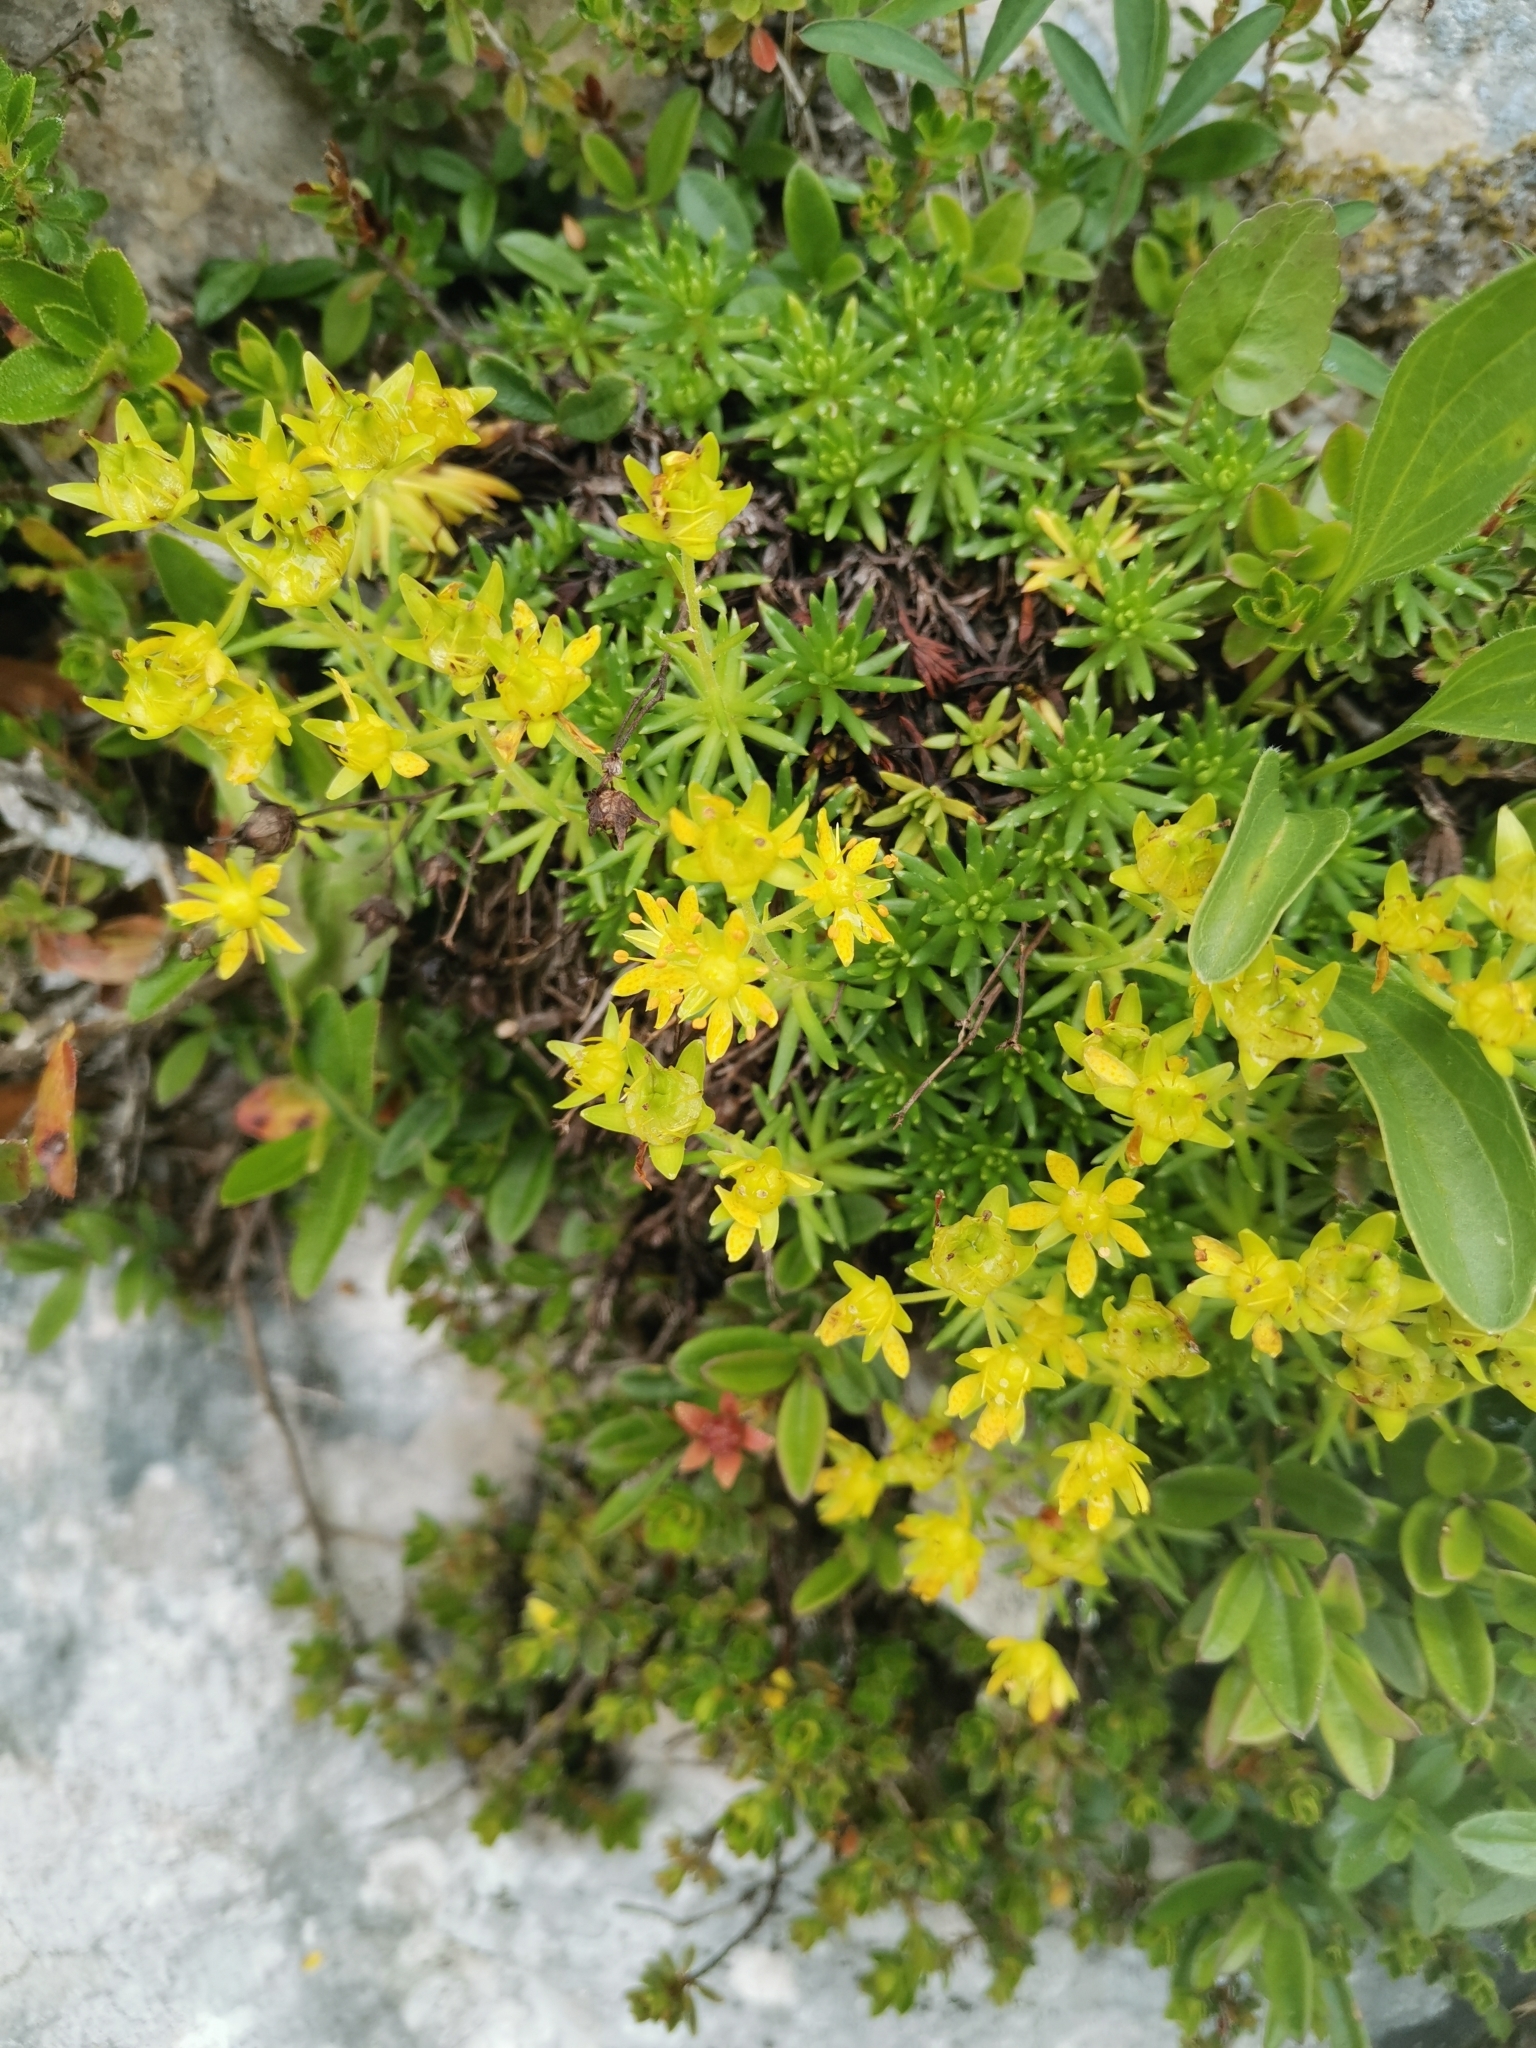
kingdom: Plantae
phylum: Tracheophyta
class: Magnoliopsida
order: Saxifragales
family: Saxifragaceae
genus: Saxifraga
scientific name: Saxifraga aizoides
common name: Yellow mountain saxifrage
